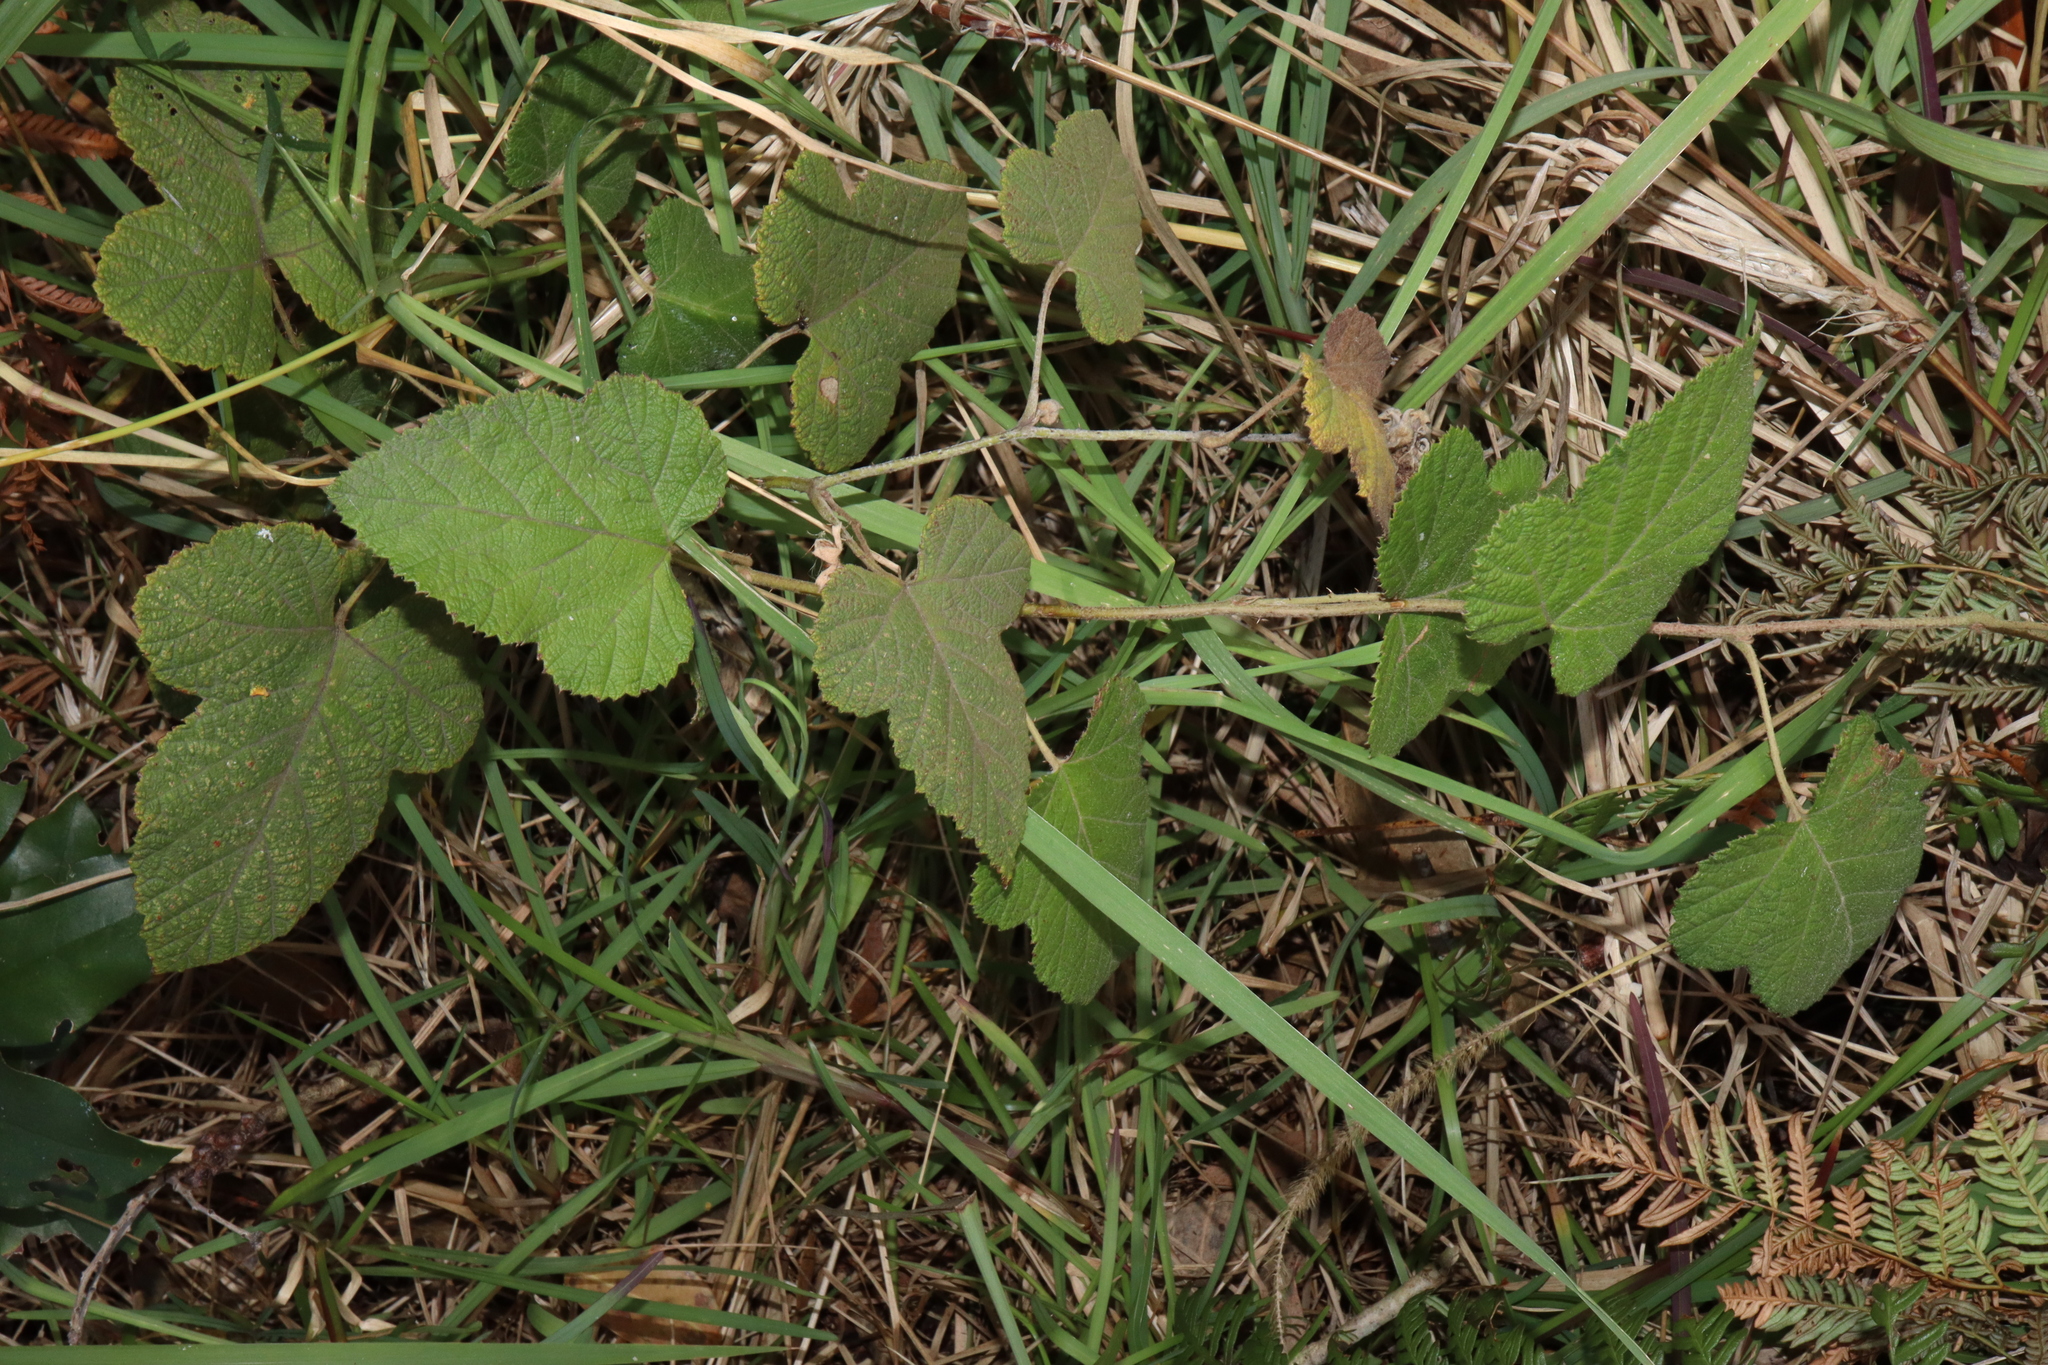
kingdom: Plantae
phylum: Tracheophyta
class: Magnoliopsida
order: Rosales
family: Rosaceae
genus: Rubus
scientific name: Rubus moluccanus
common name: Wild raspberry
